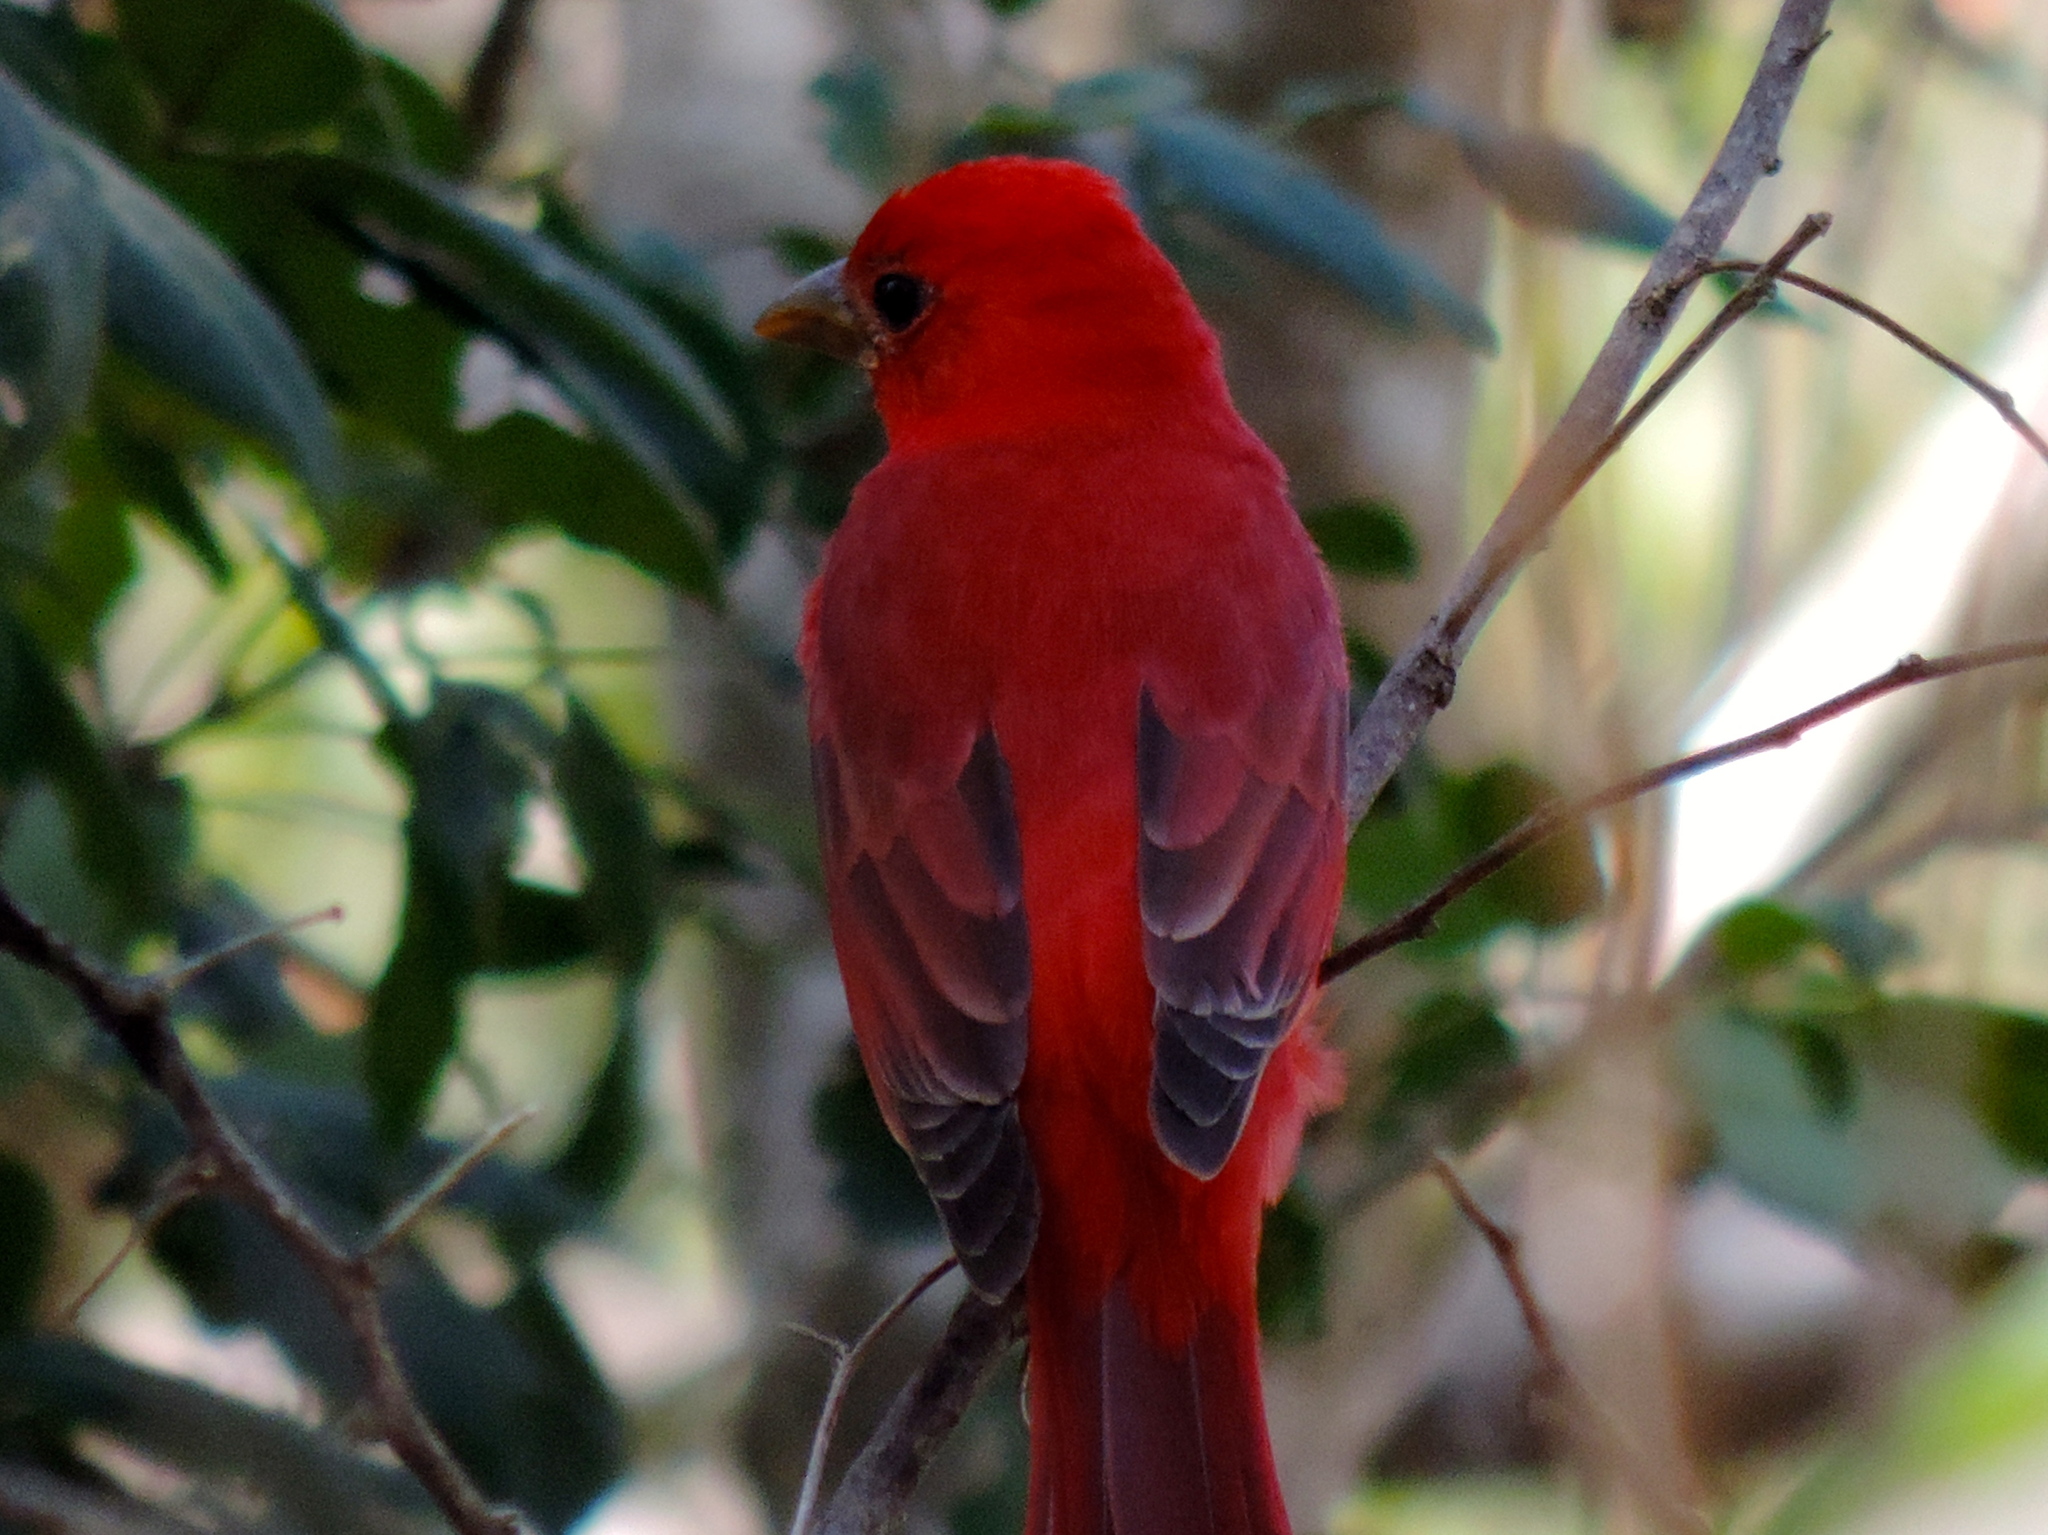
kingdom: Animalia
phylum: Chordata
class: Aves
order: Passeriformes
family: Cardinalidae
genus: Piranga
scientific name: Piranga rubra
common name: Summer tanager
